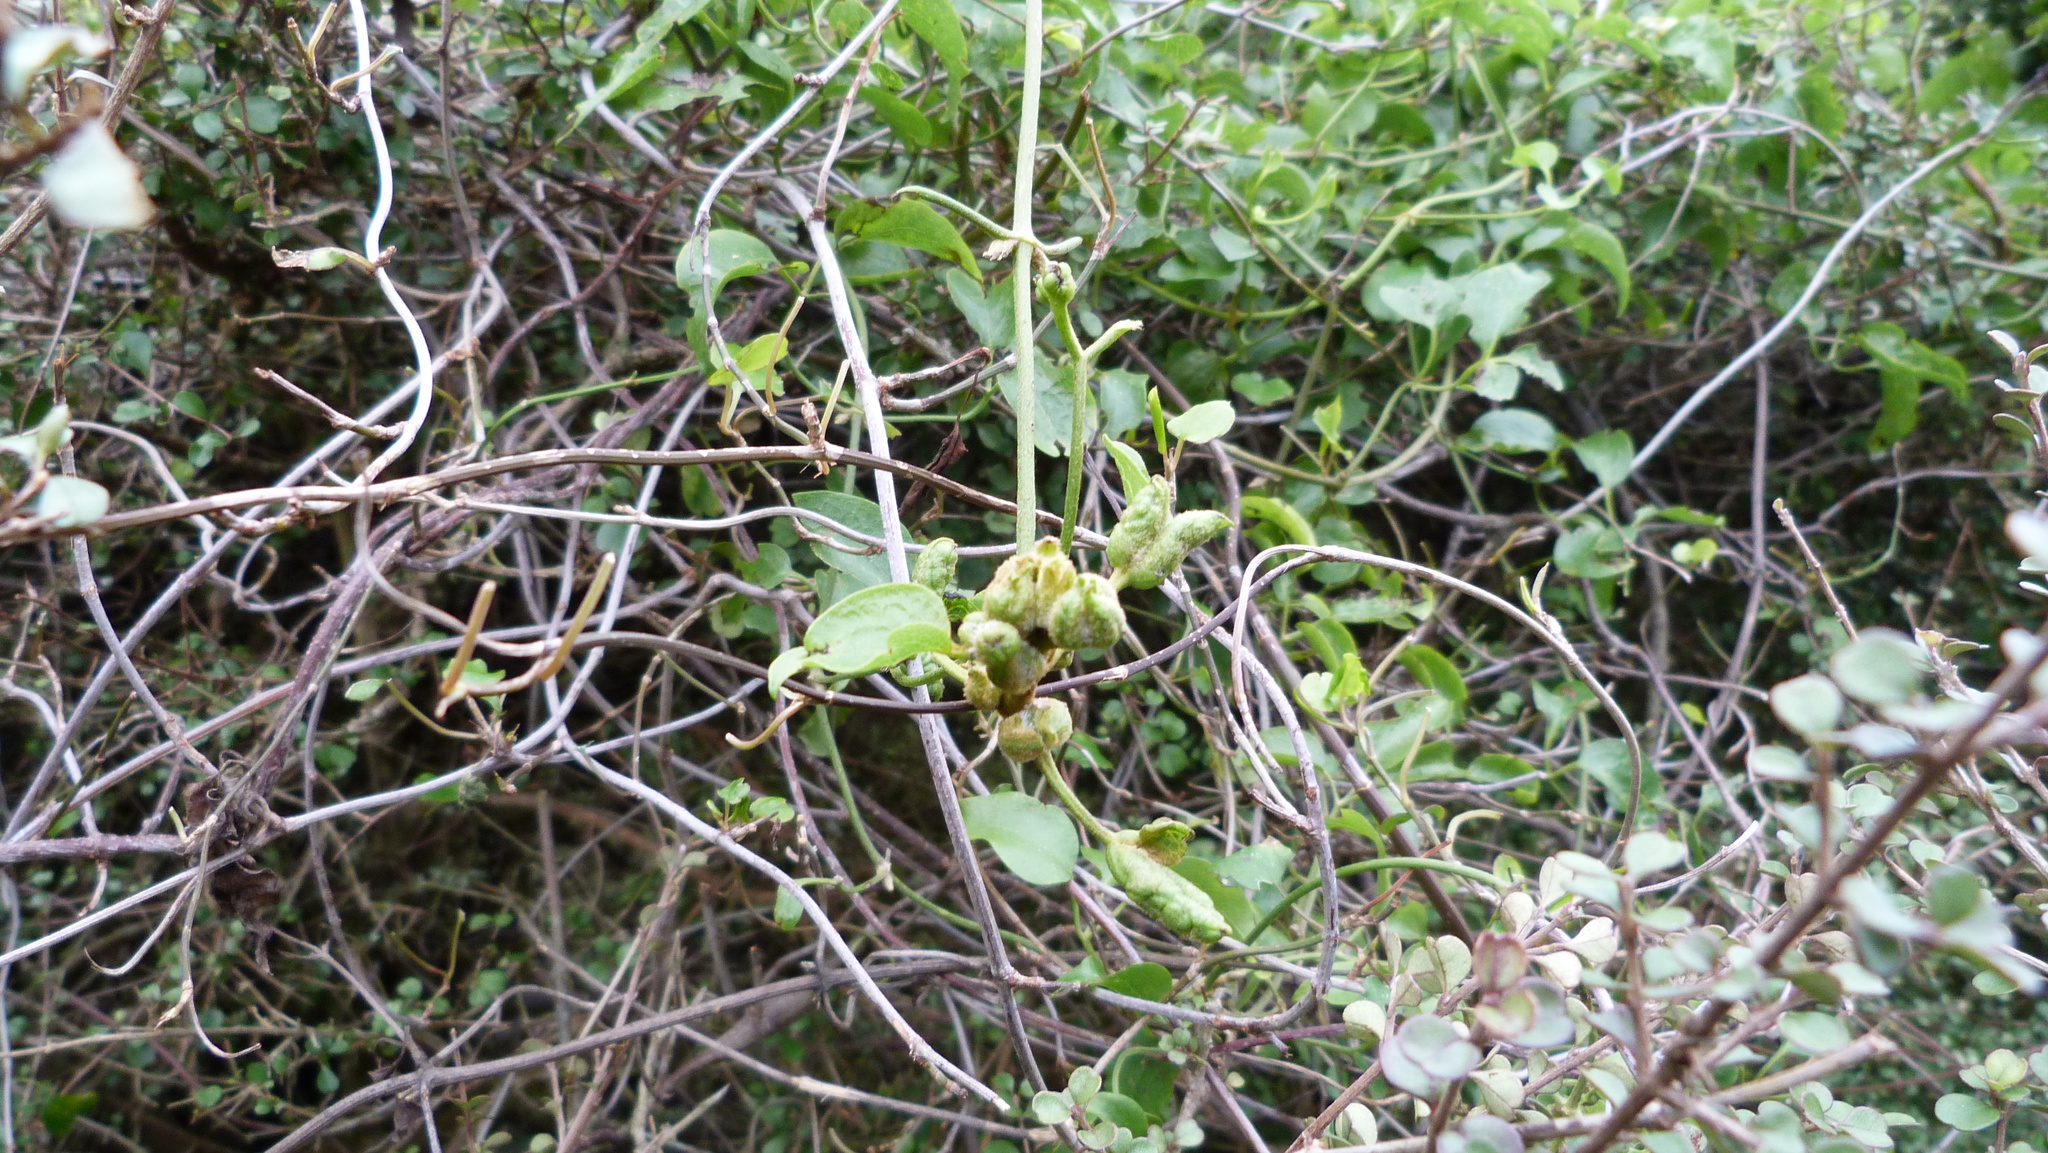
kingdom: Plantae
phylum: Tracheophyta
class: Magnoliopsida
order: Ranunculales
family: Ranunculaceae
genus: Clematis
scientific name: Clematis foetida
